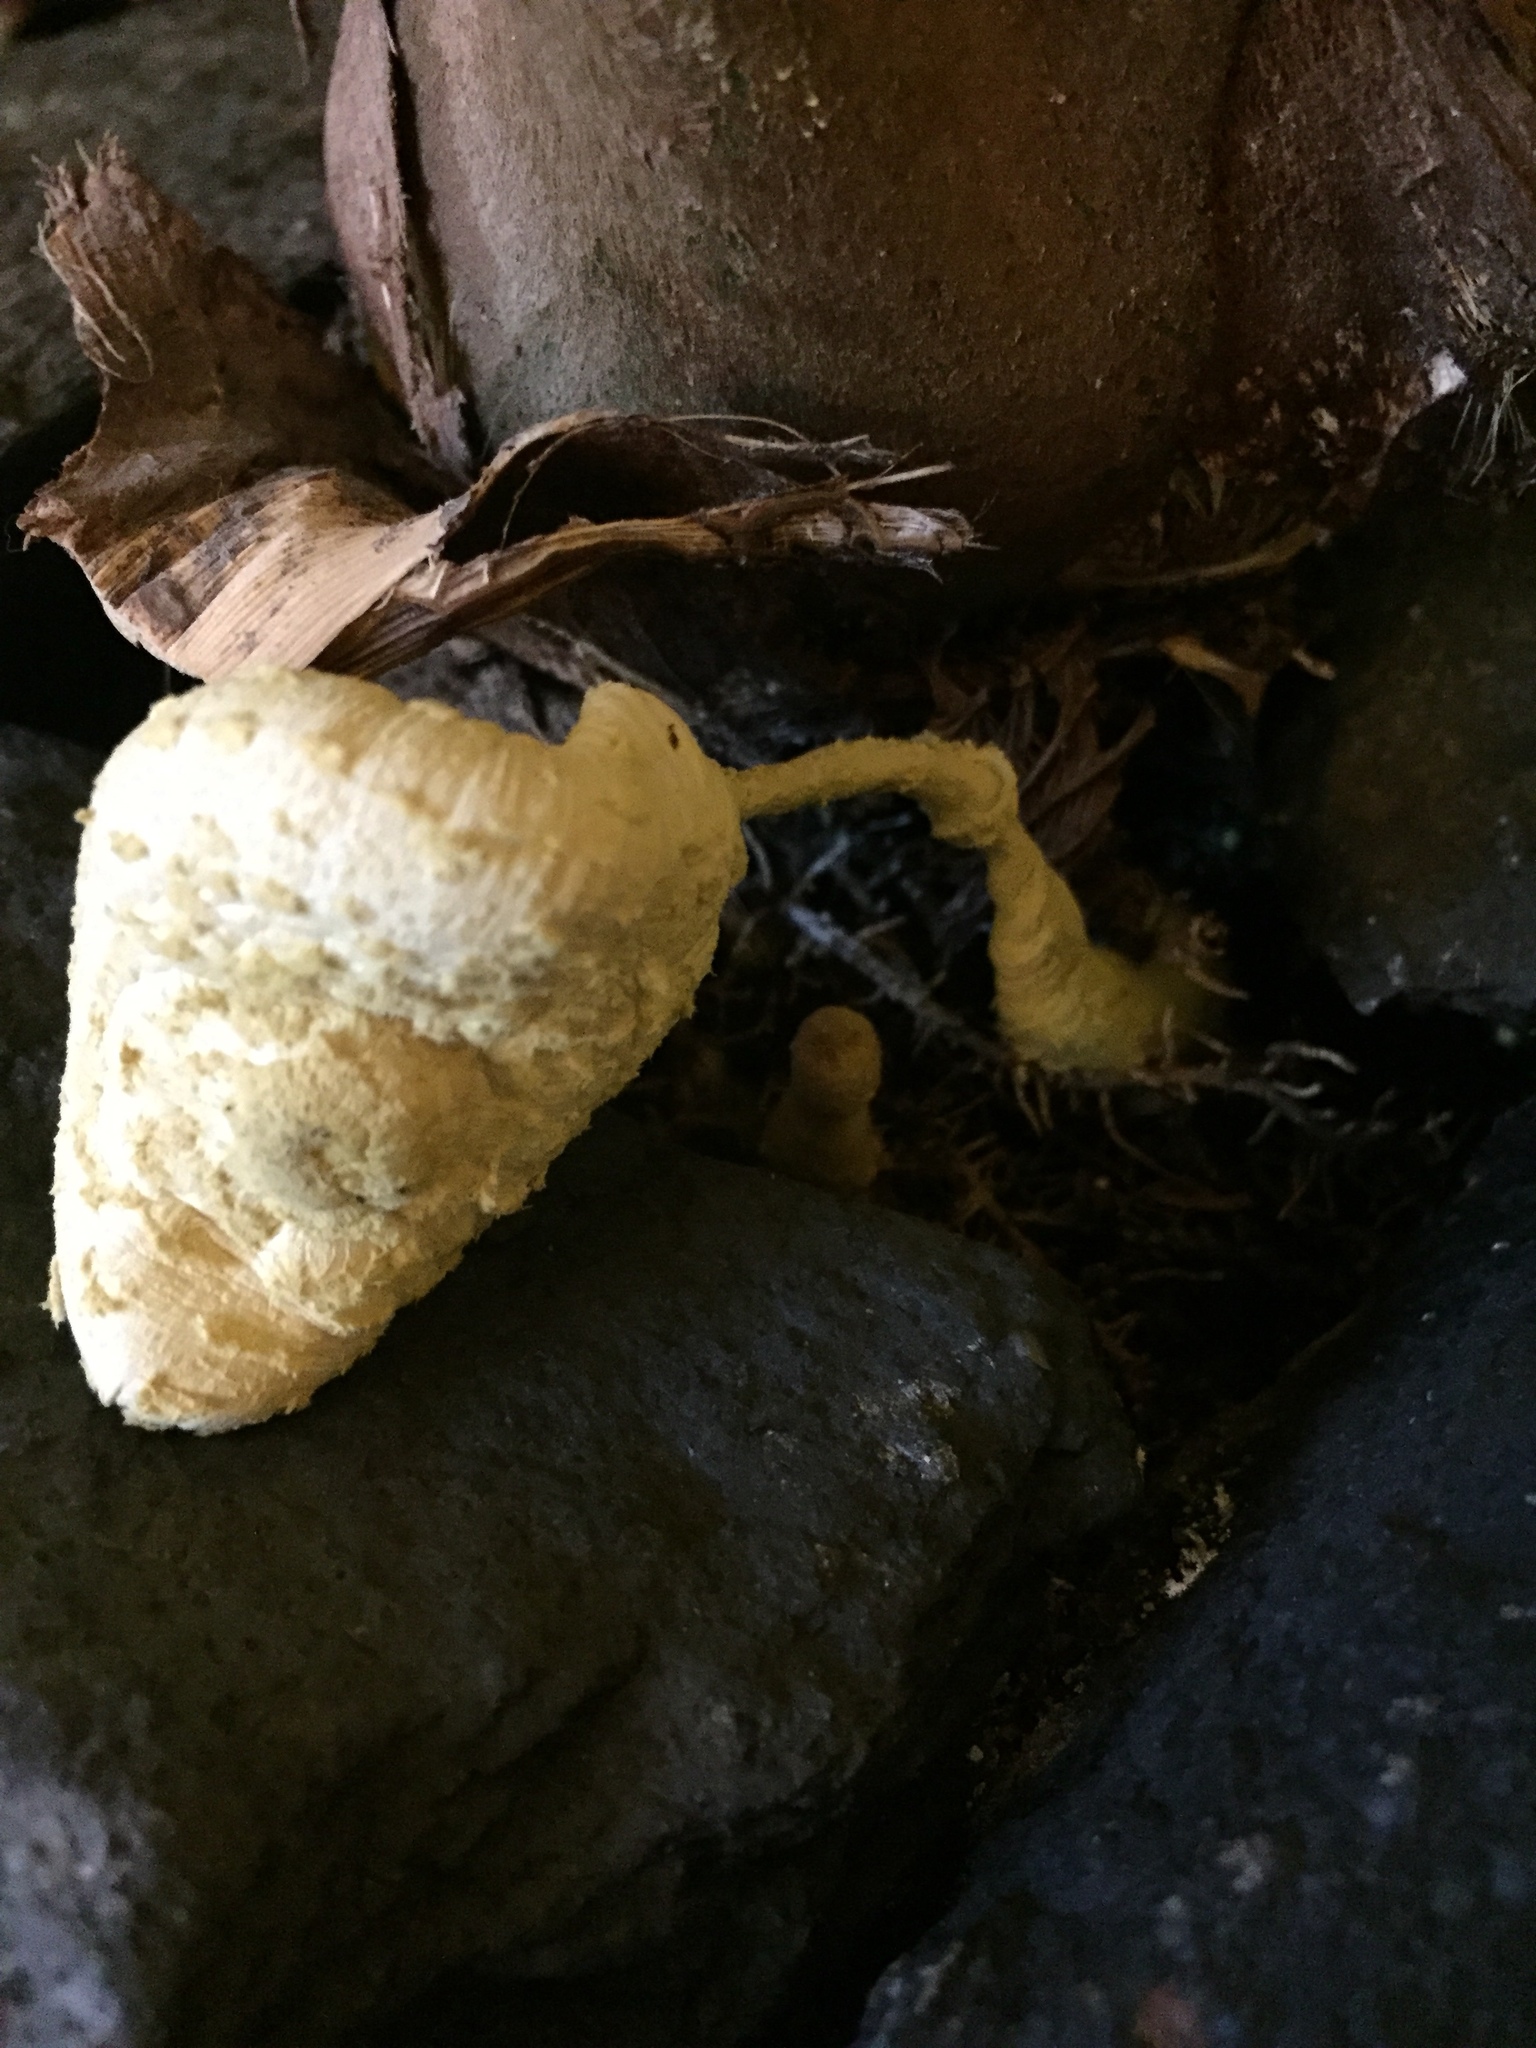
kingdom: Fungi
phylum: Basidiomycota
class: Agaricomycetes
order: Agaricales
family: Agaricaceae
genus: Leucocoprinus
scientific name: Leucocoprinus birnbaumii
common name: Plantpot dapperling
